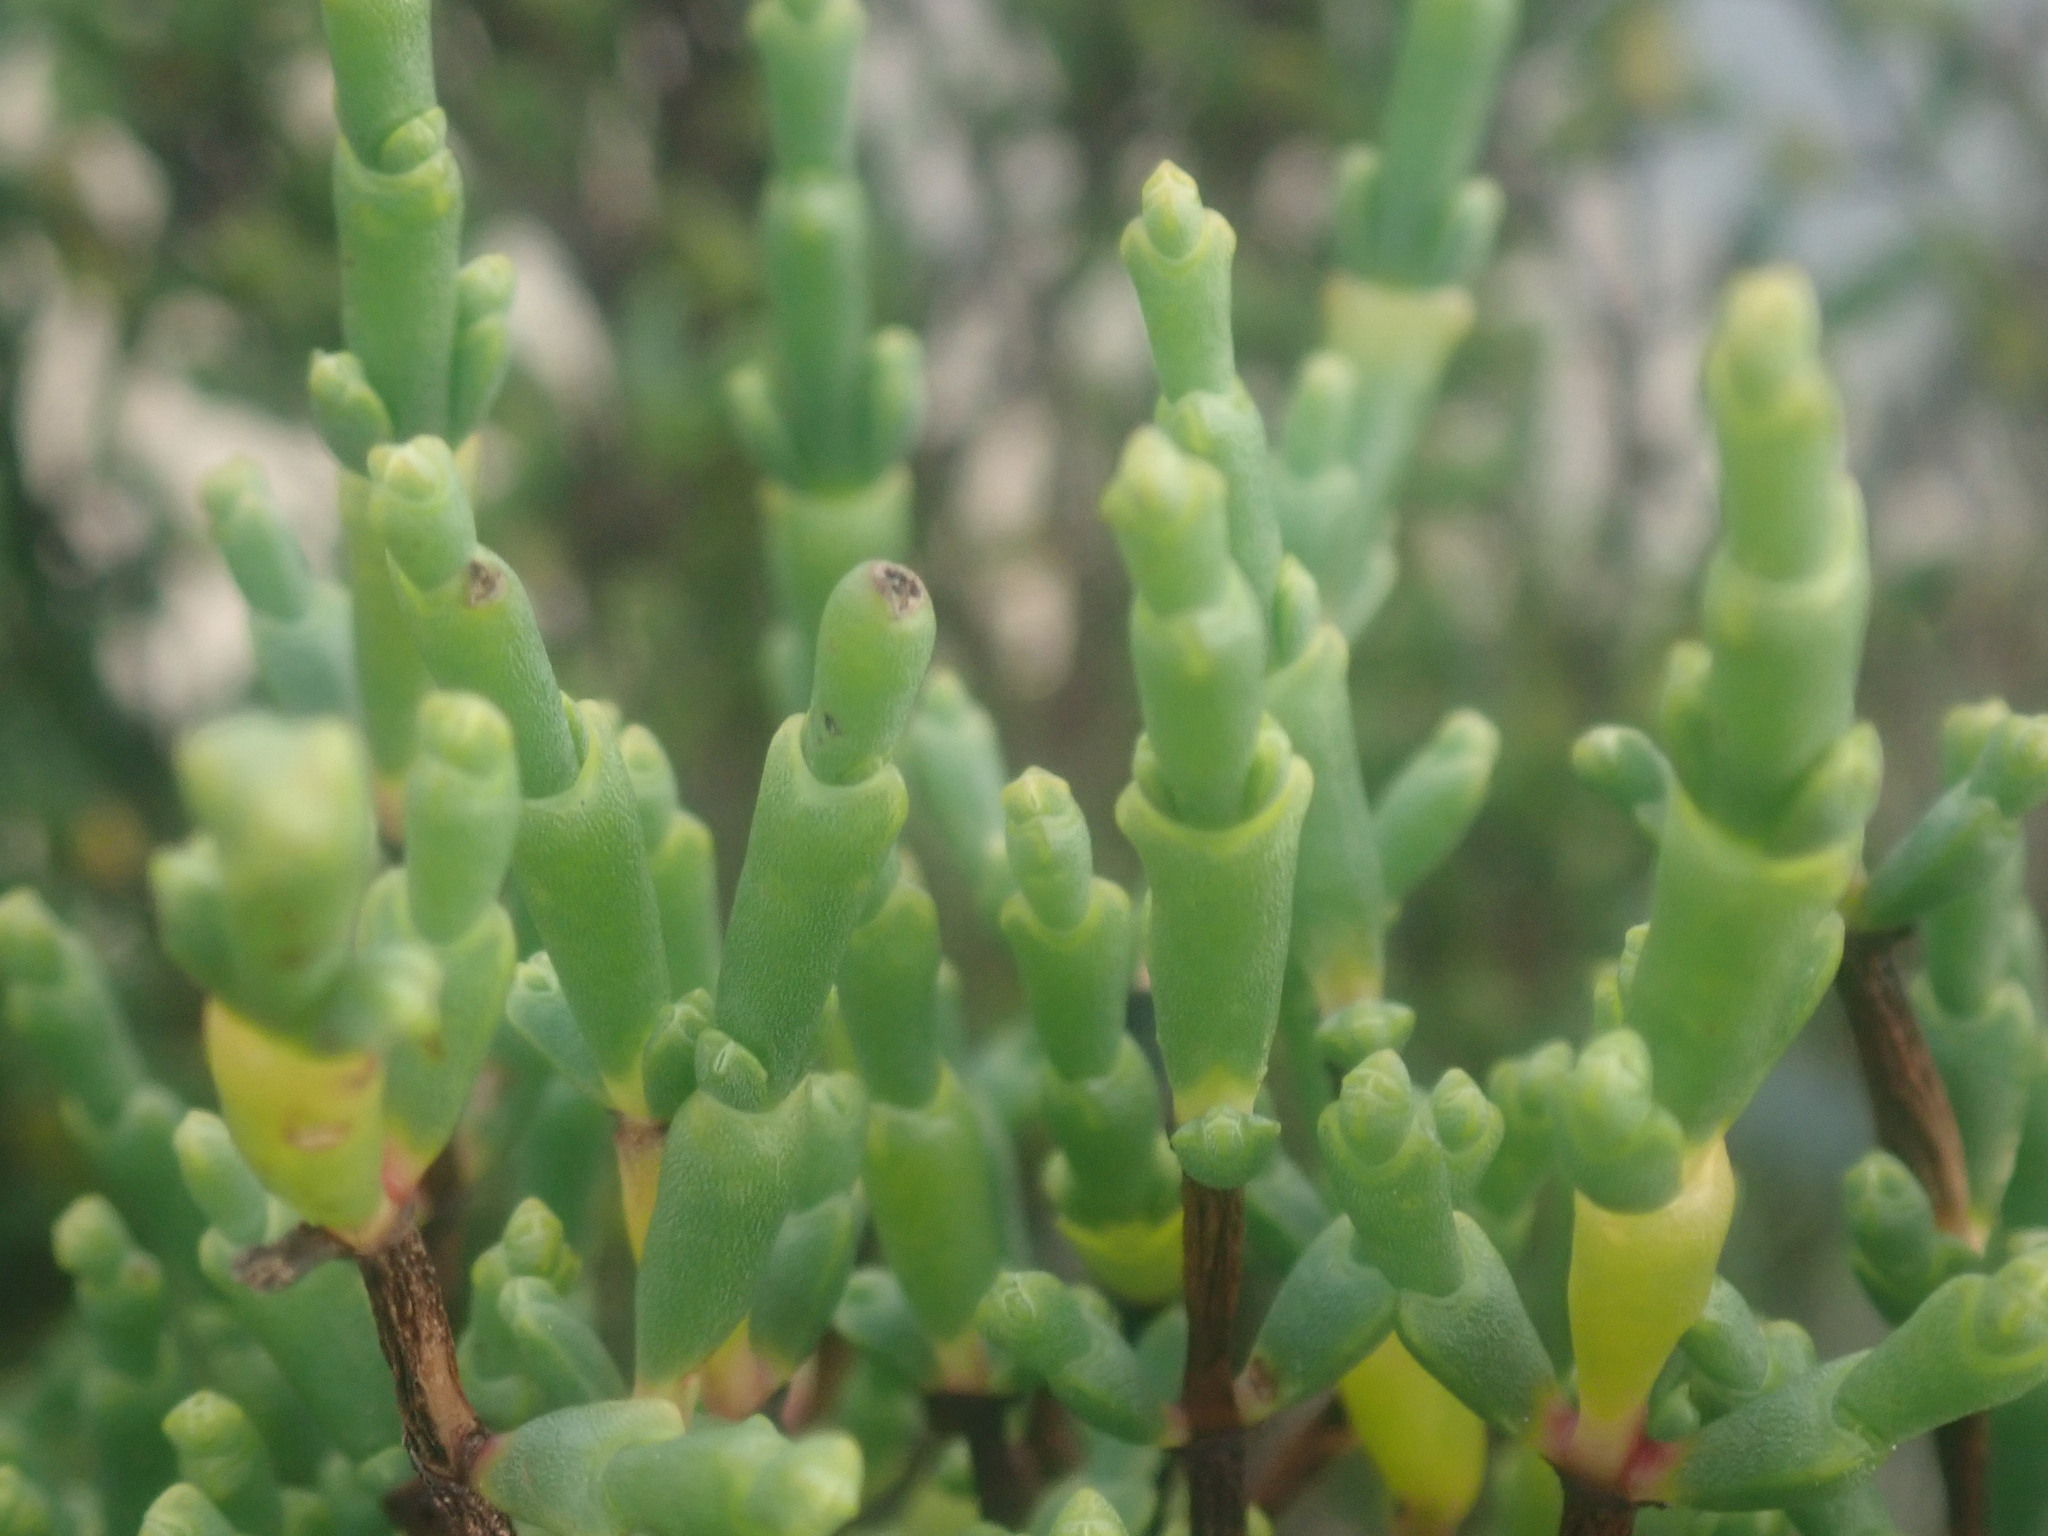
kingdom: Plantae
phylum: Tracheophyta
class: Magnoliopsida
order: Caryophyllales
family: Amaranthaceae
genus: Tecticornia
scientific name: Tecticornia arbuscula
